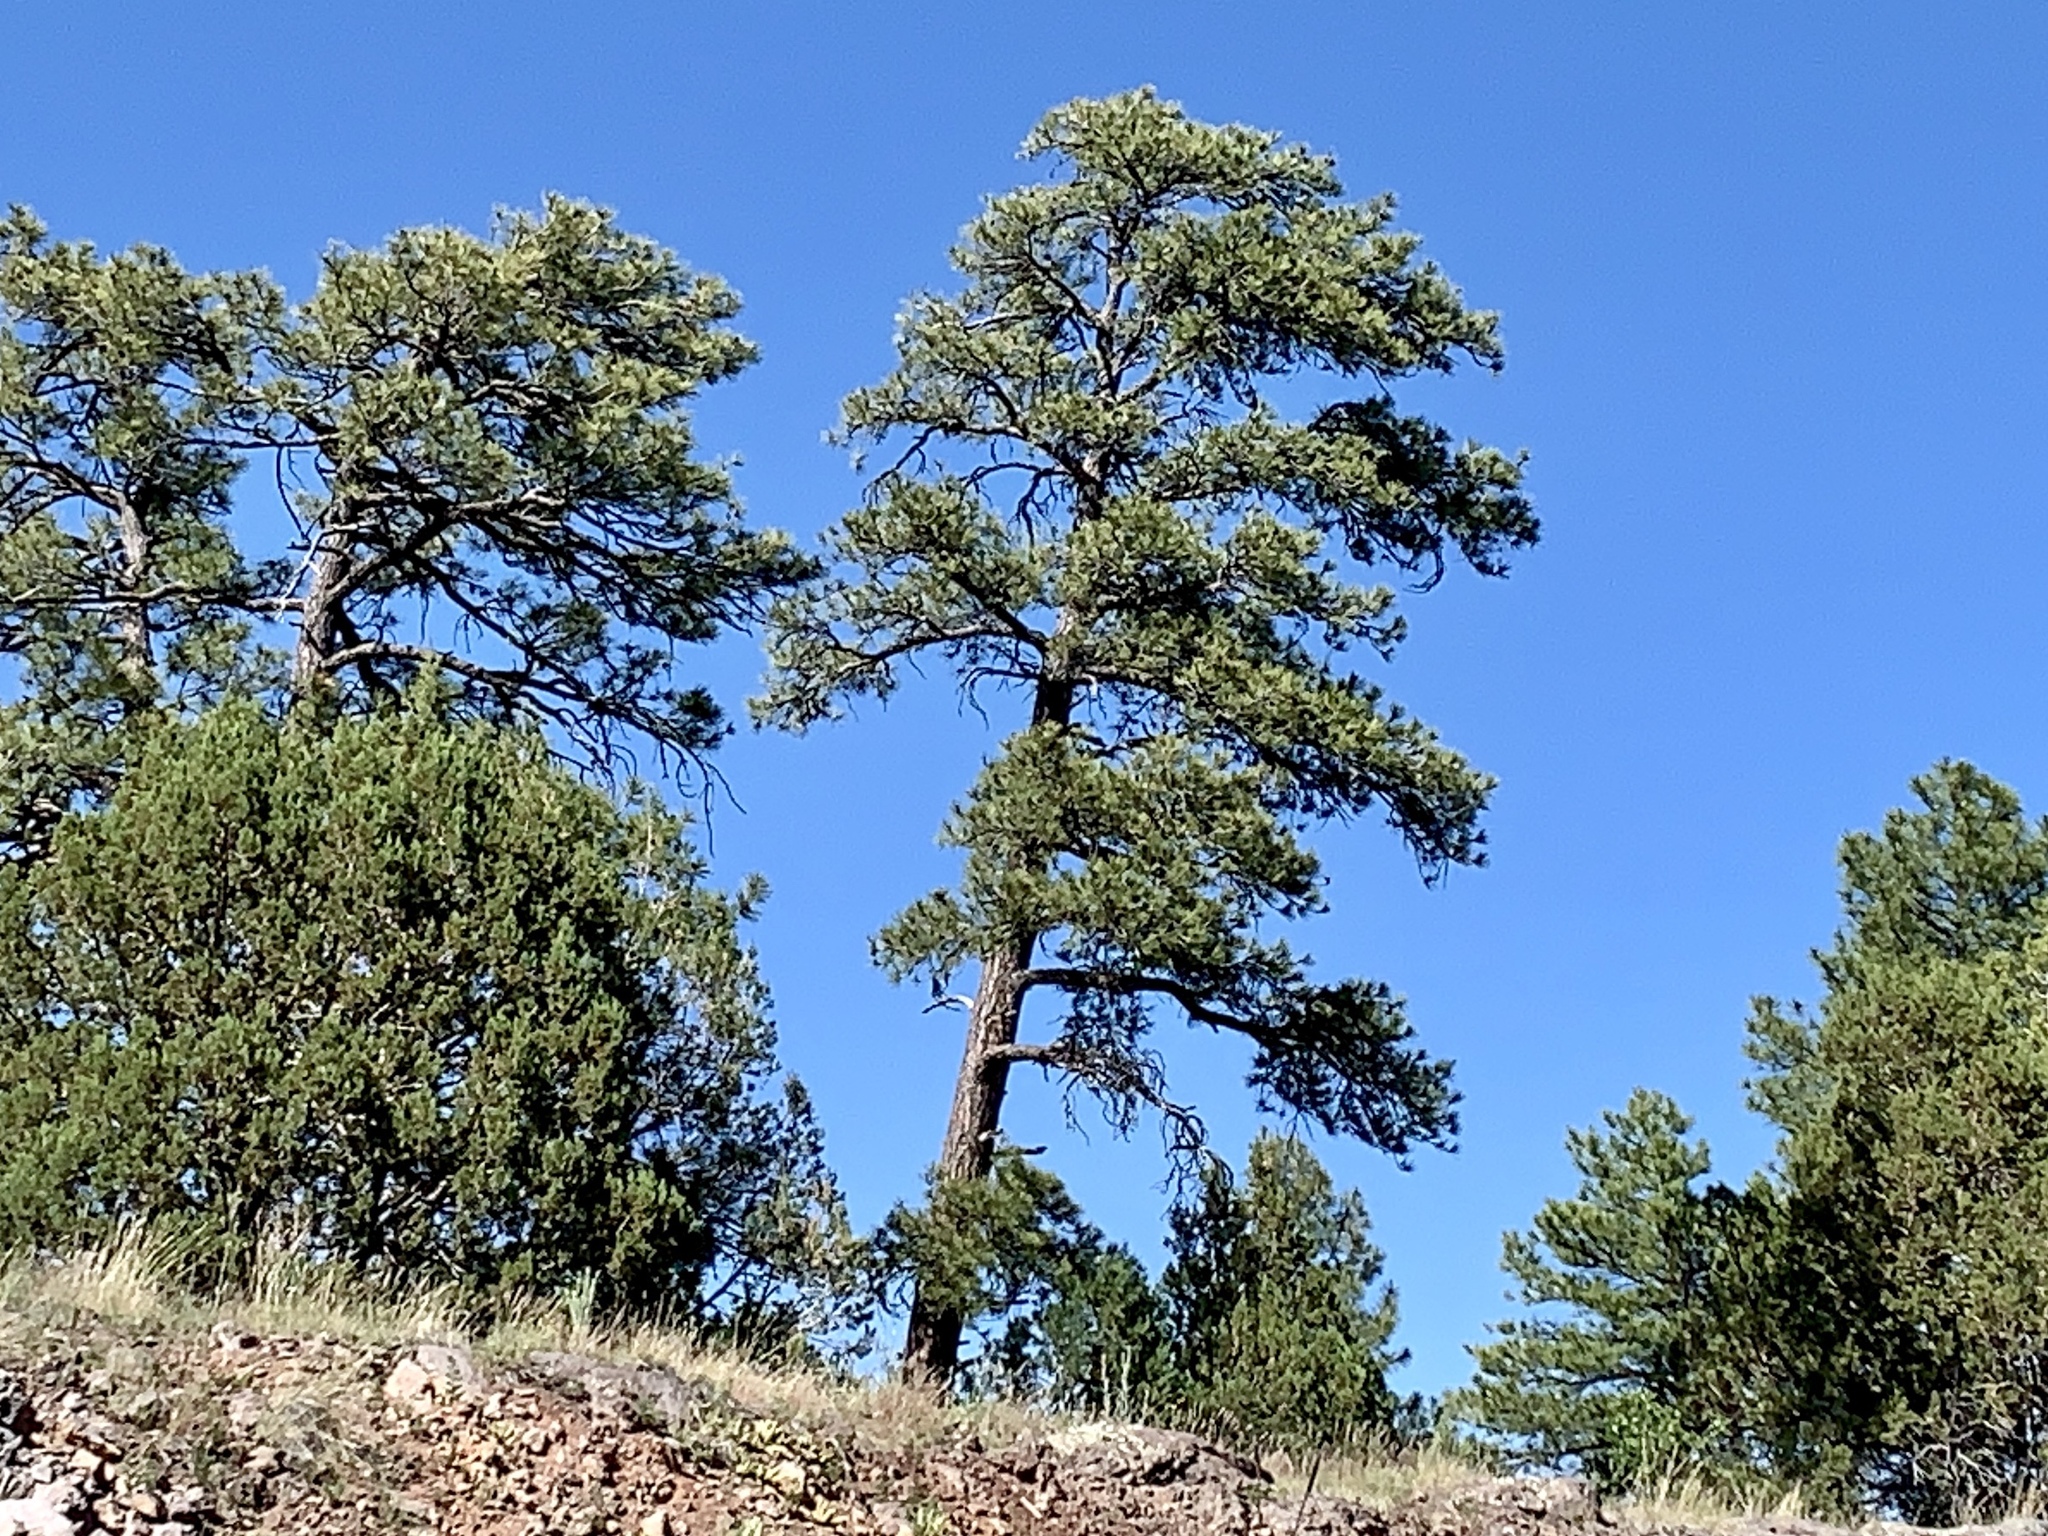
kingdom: Plantae
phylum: Tracheophyta
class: Pinopsida
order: Pinales
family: Pinaceae
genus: Pinus
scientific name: Pinus ponderosa
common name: Western yellow-pine
